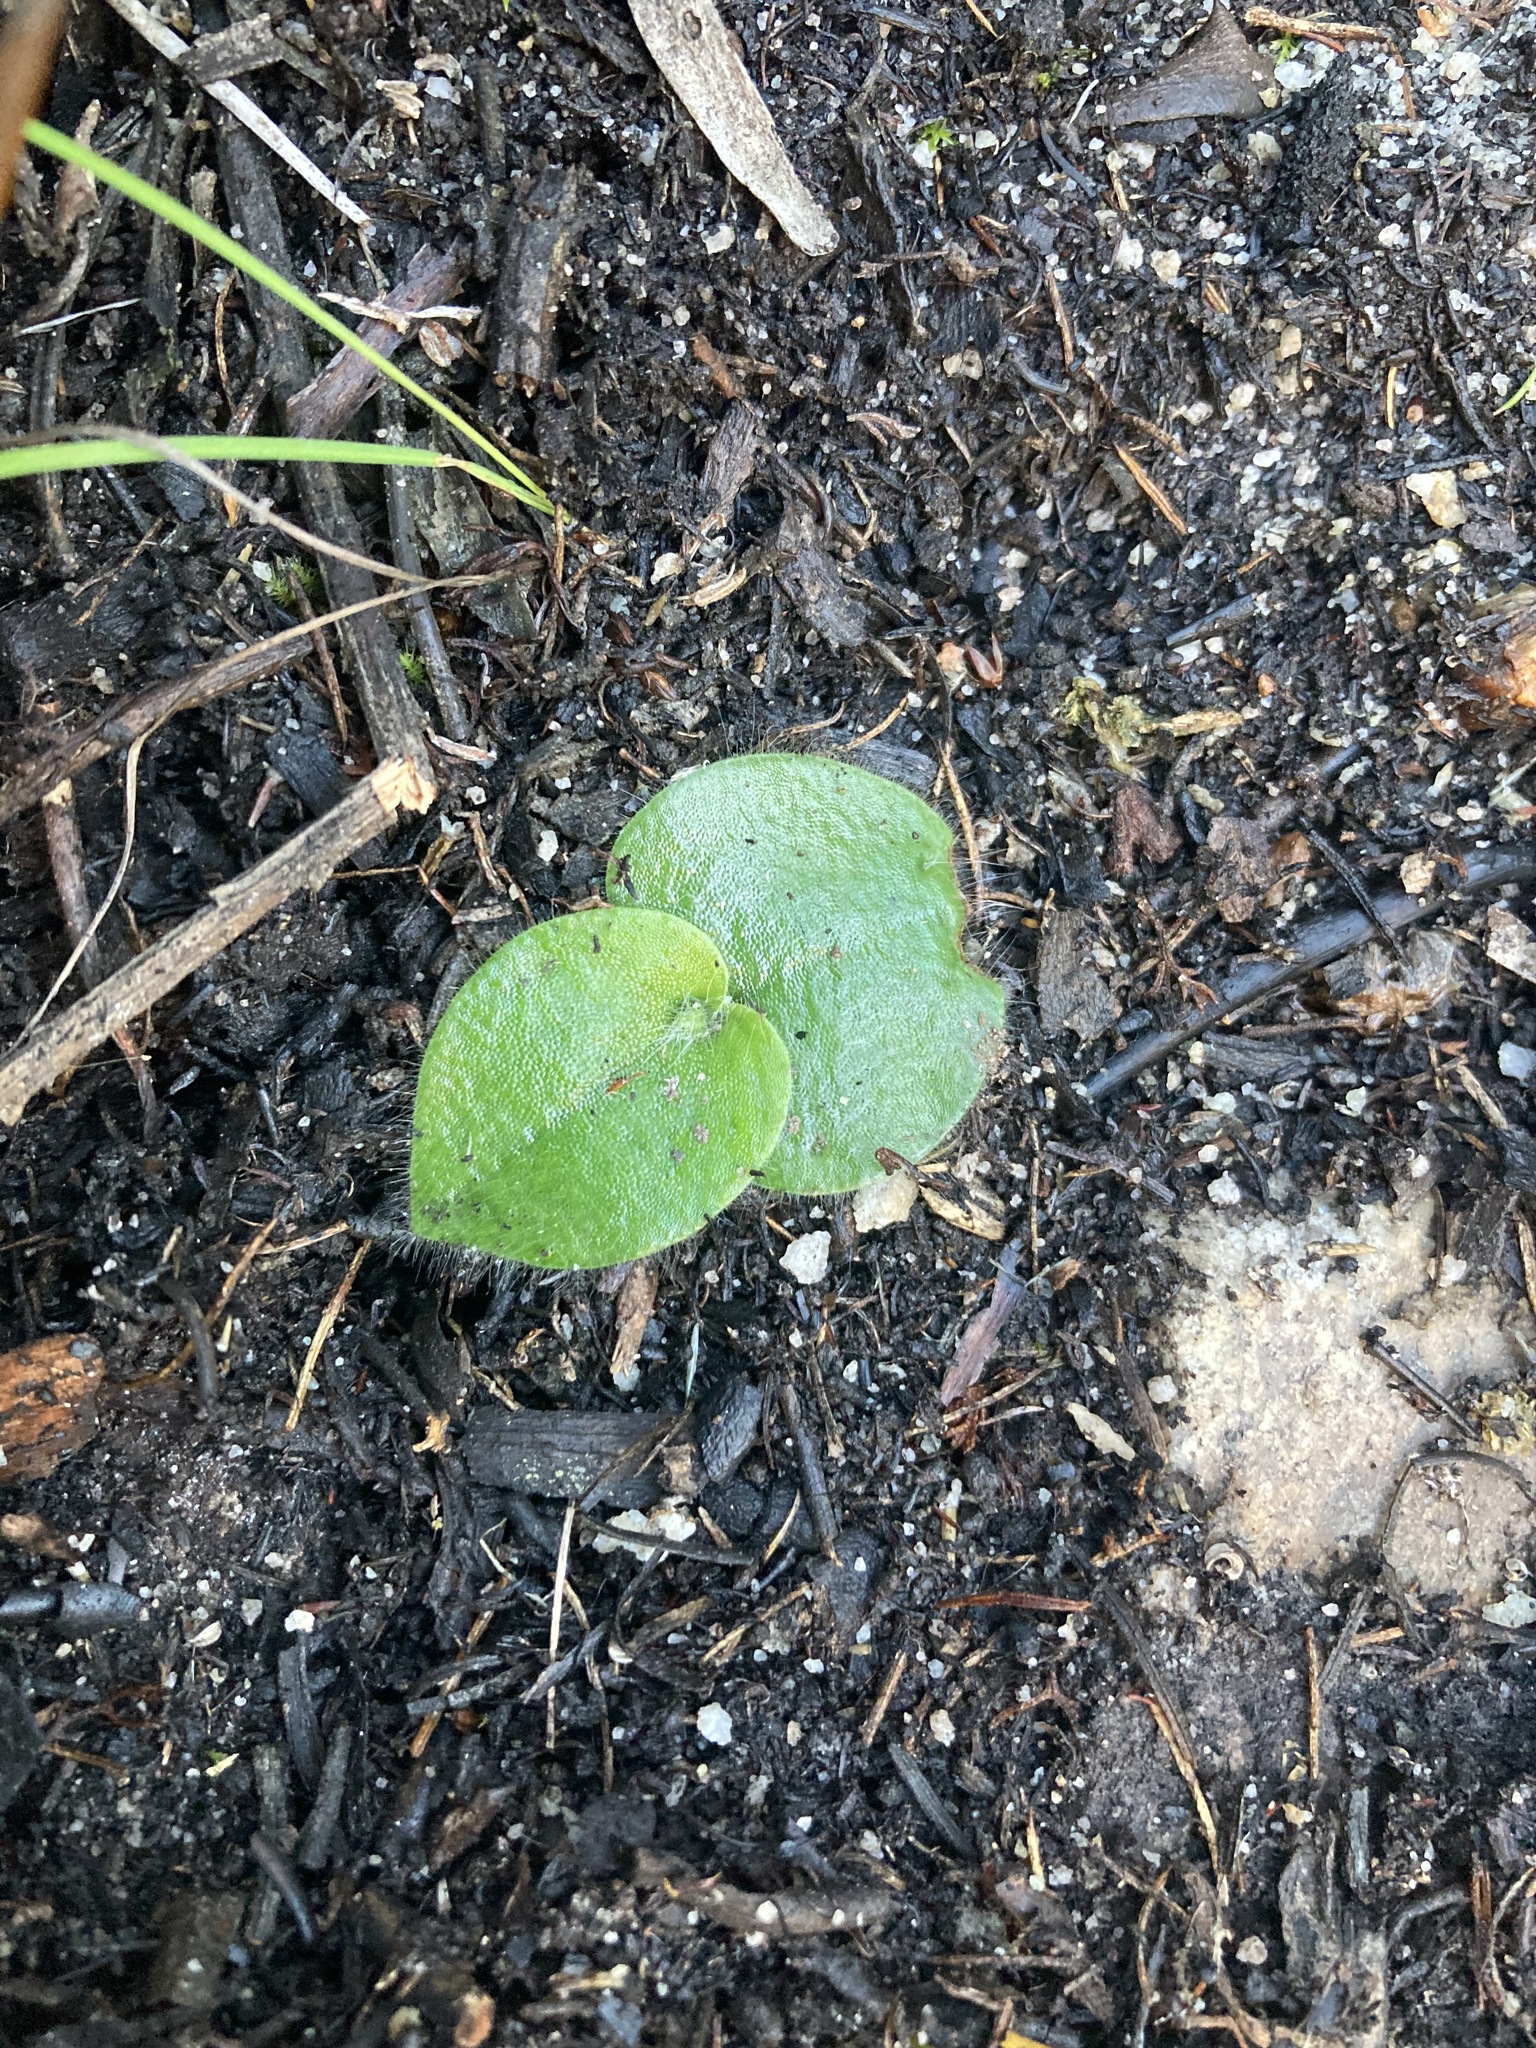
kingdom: Plantae
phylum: Tracheophyta
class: Liliopsida
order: Asparagales
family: Orchidaceae
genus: Holothrix
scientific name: Holothrix exilis
